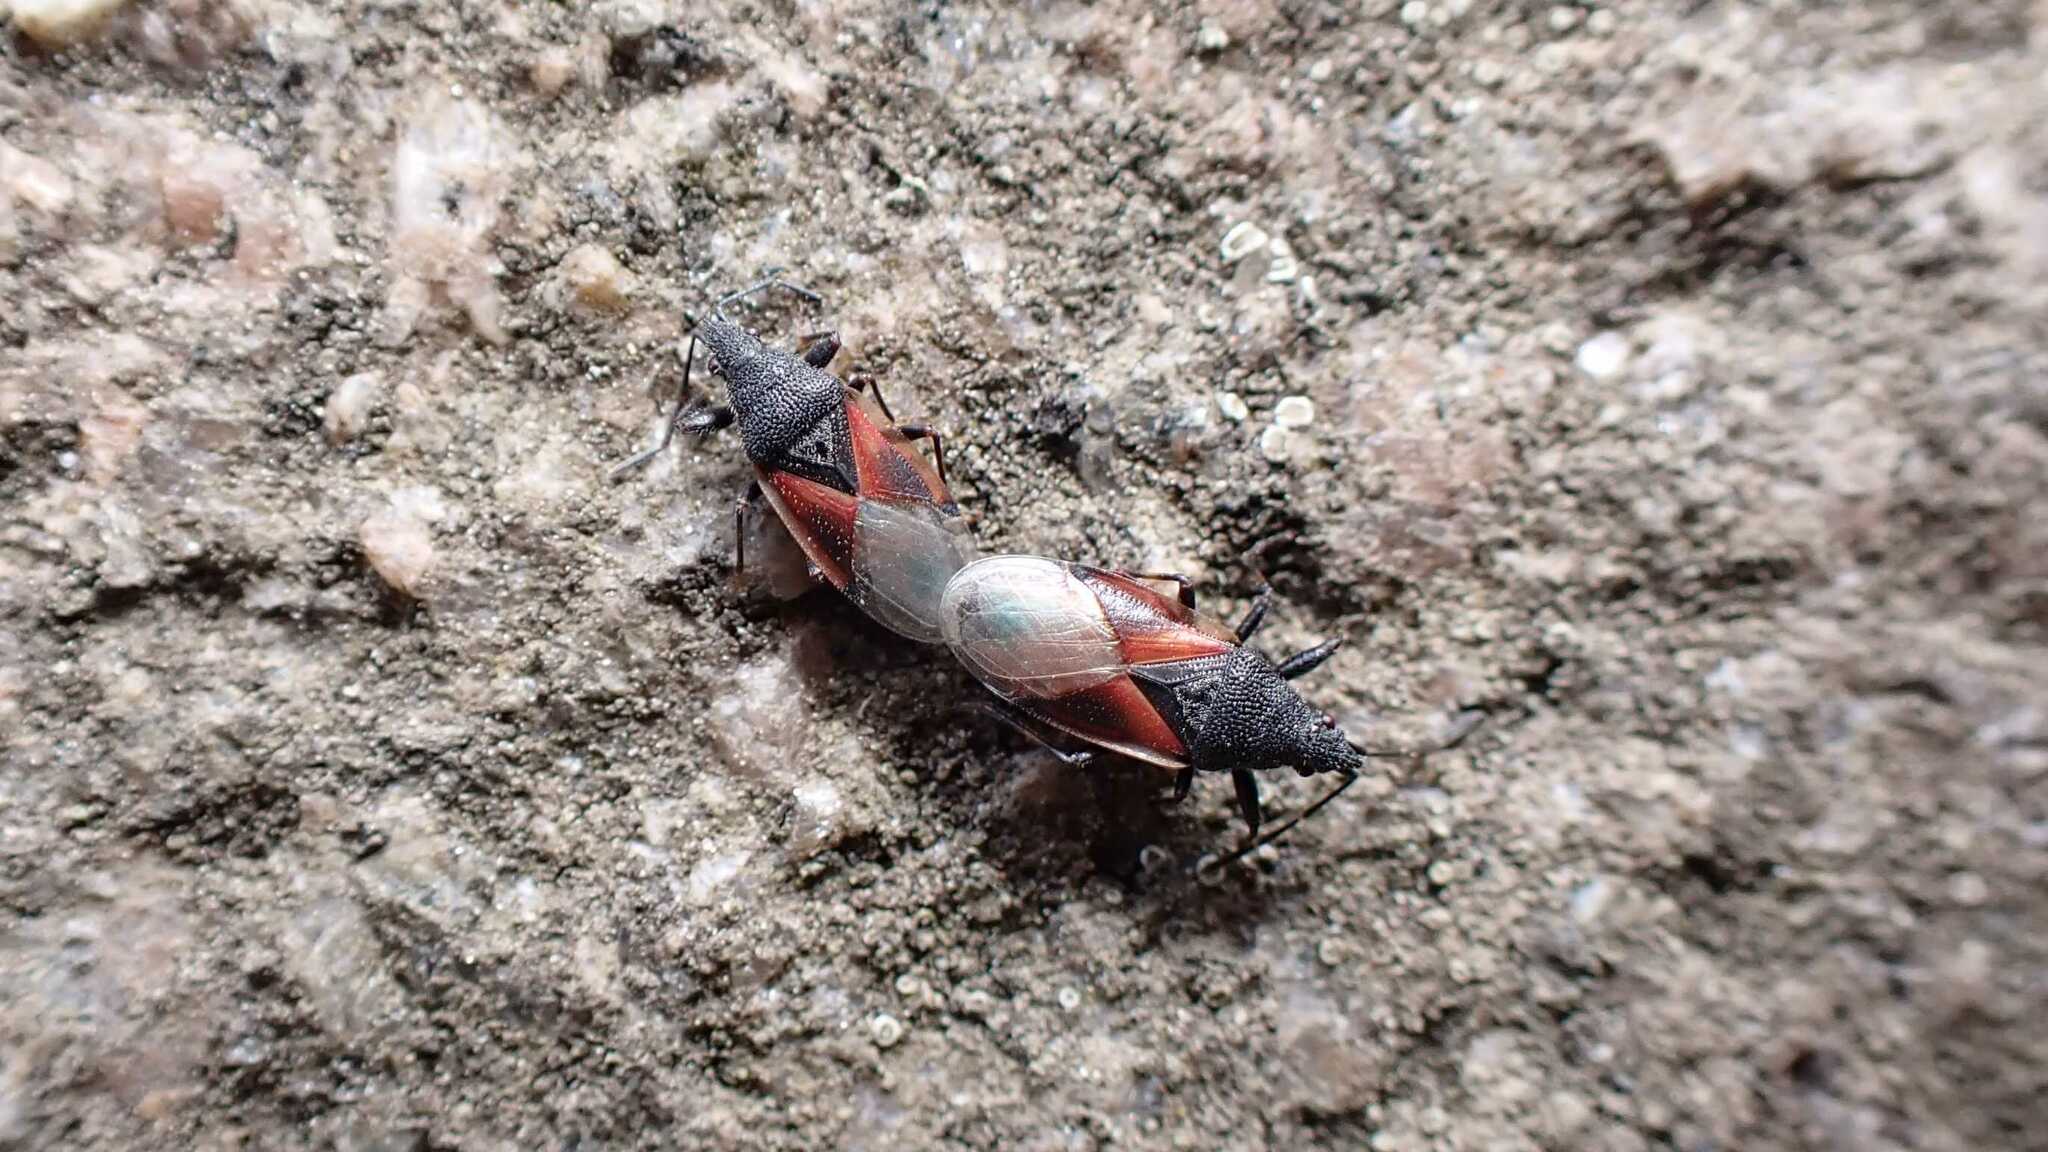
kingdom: Animalia
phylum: Arthropoda
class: Insecta
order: Hemiptera
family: Oxycarenidae
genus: Oxycarenus
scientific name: Oxycarenus lavaterae
